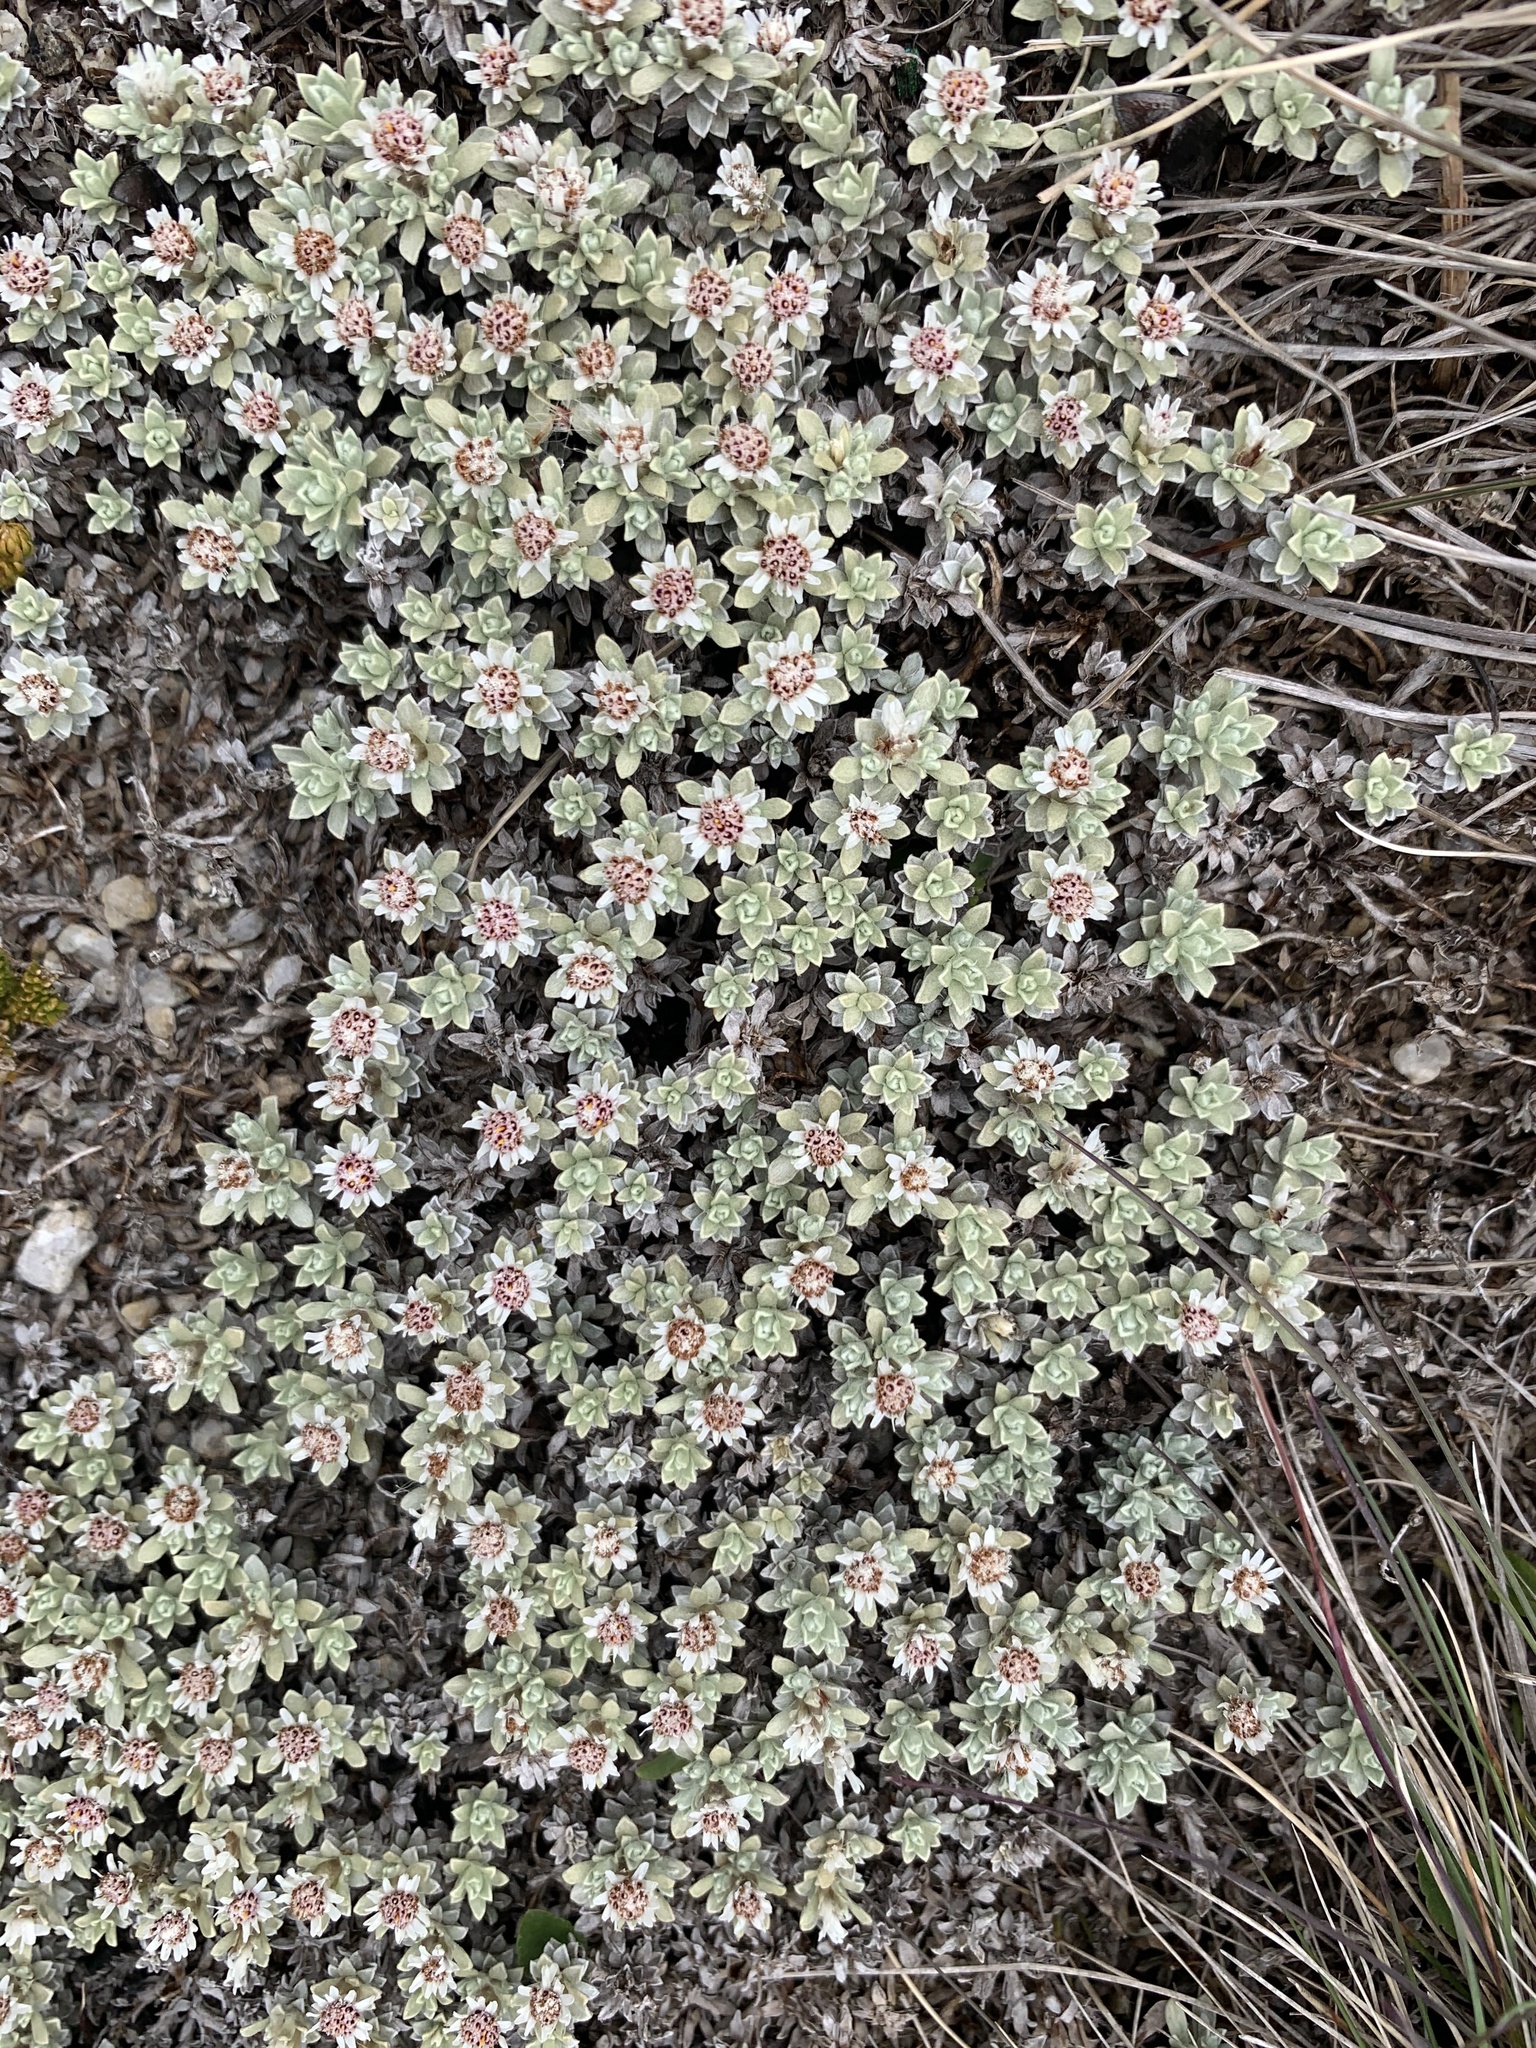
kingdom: Plantae
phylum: Tracheophyta
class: Magnoliopsida
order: Asterales
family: Asteraceae
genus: Ewartia
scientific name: Ewartia nubigena
